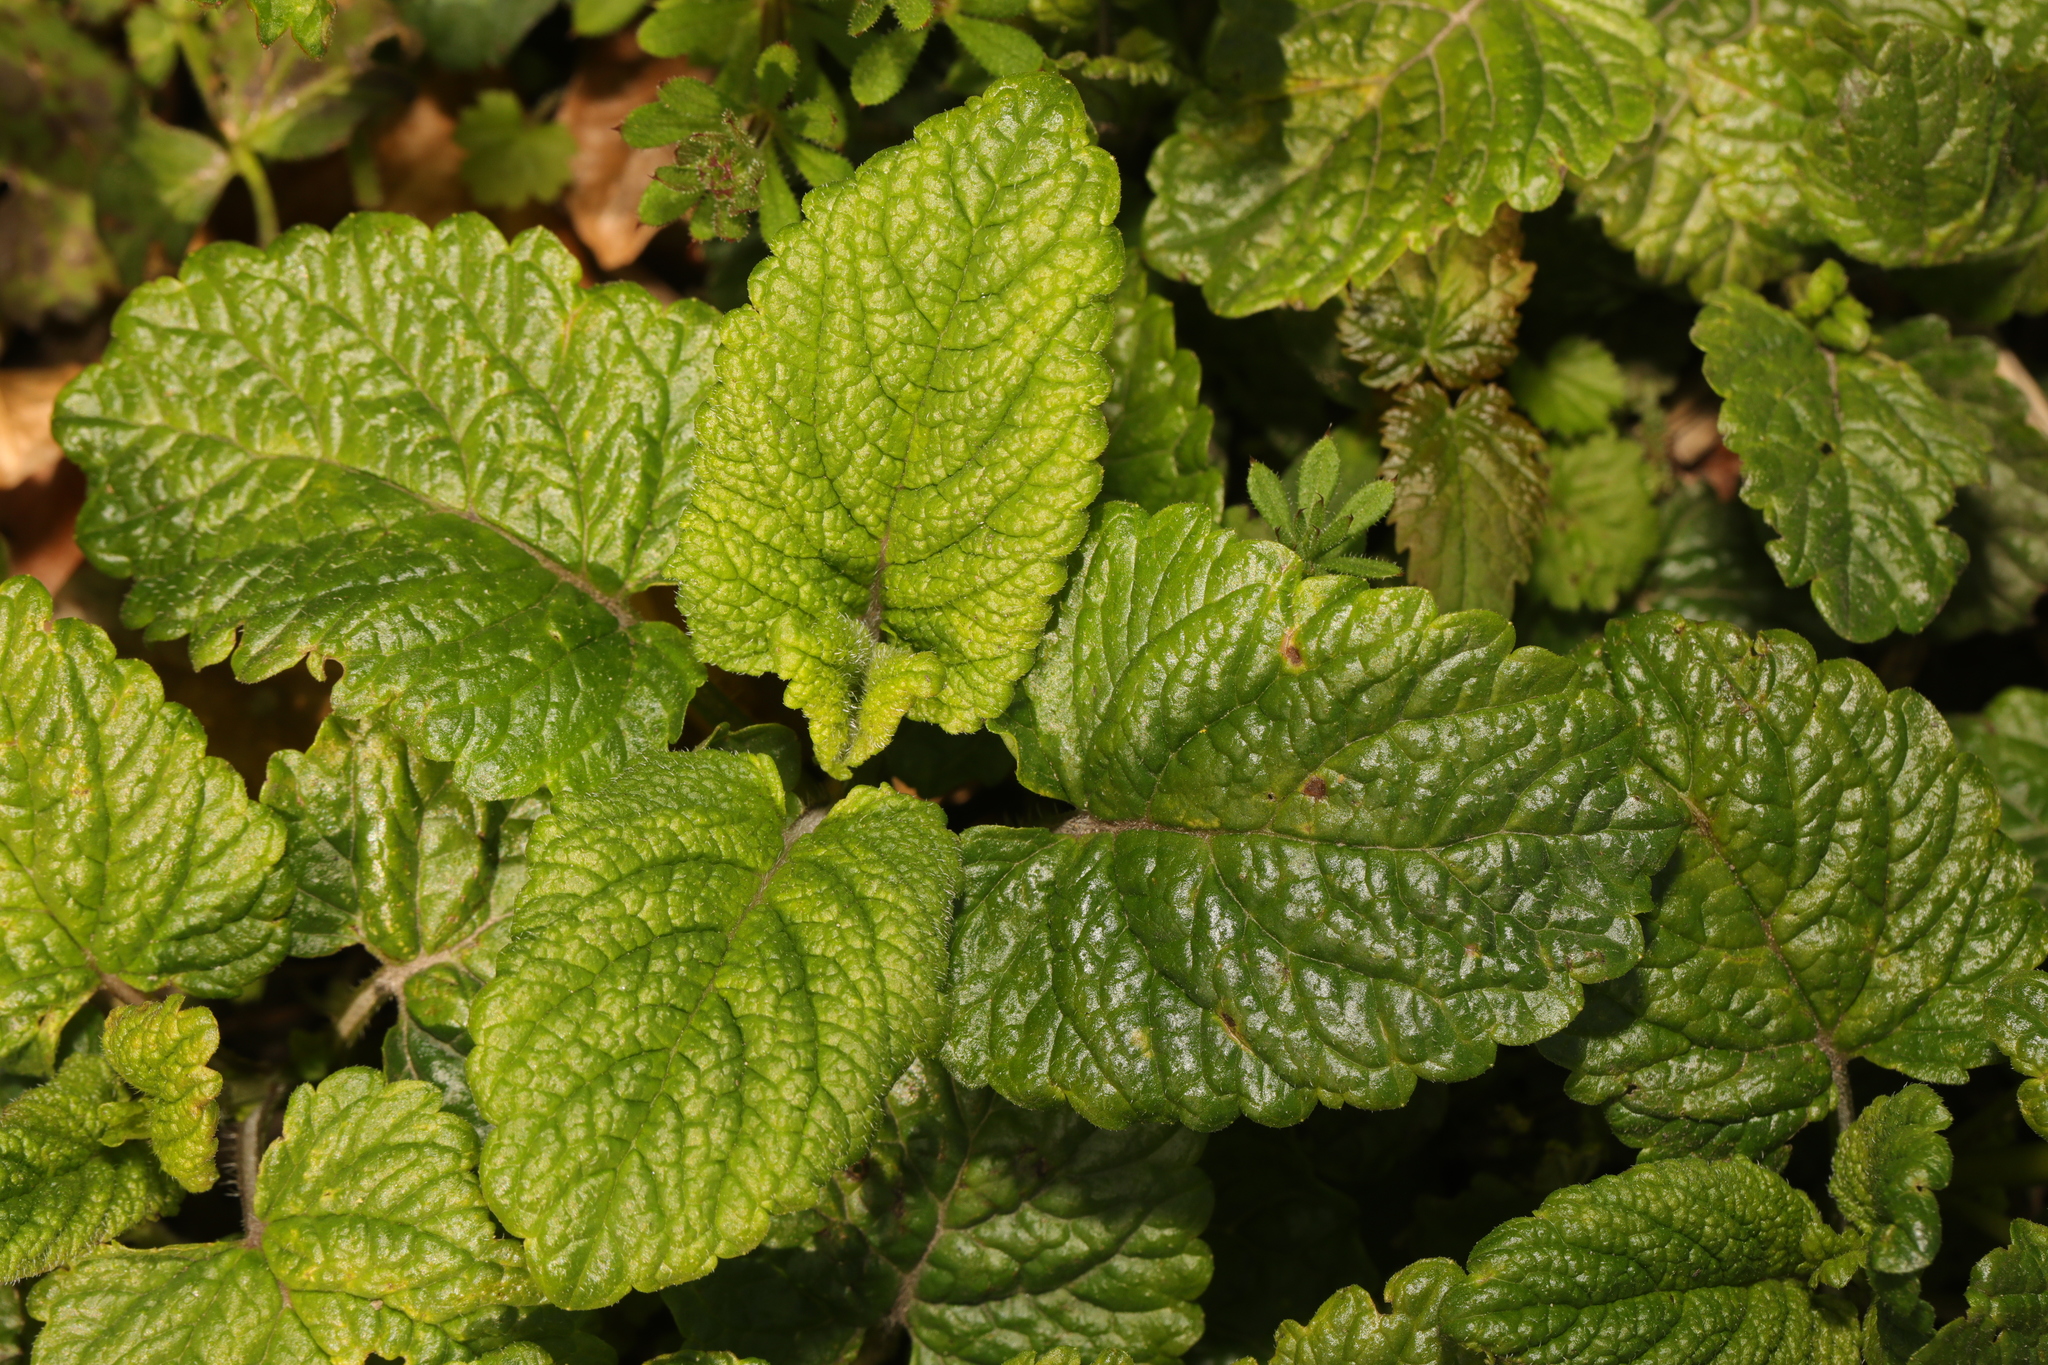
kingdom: Plantae
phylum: Tracheophyta
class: Magnoliopsida
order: Lamiales
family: Lamiaceae
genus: Melissa
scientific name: Melissa officinalis
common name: Balm
